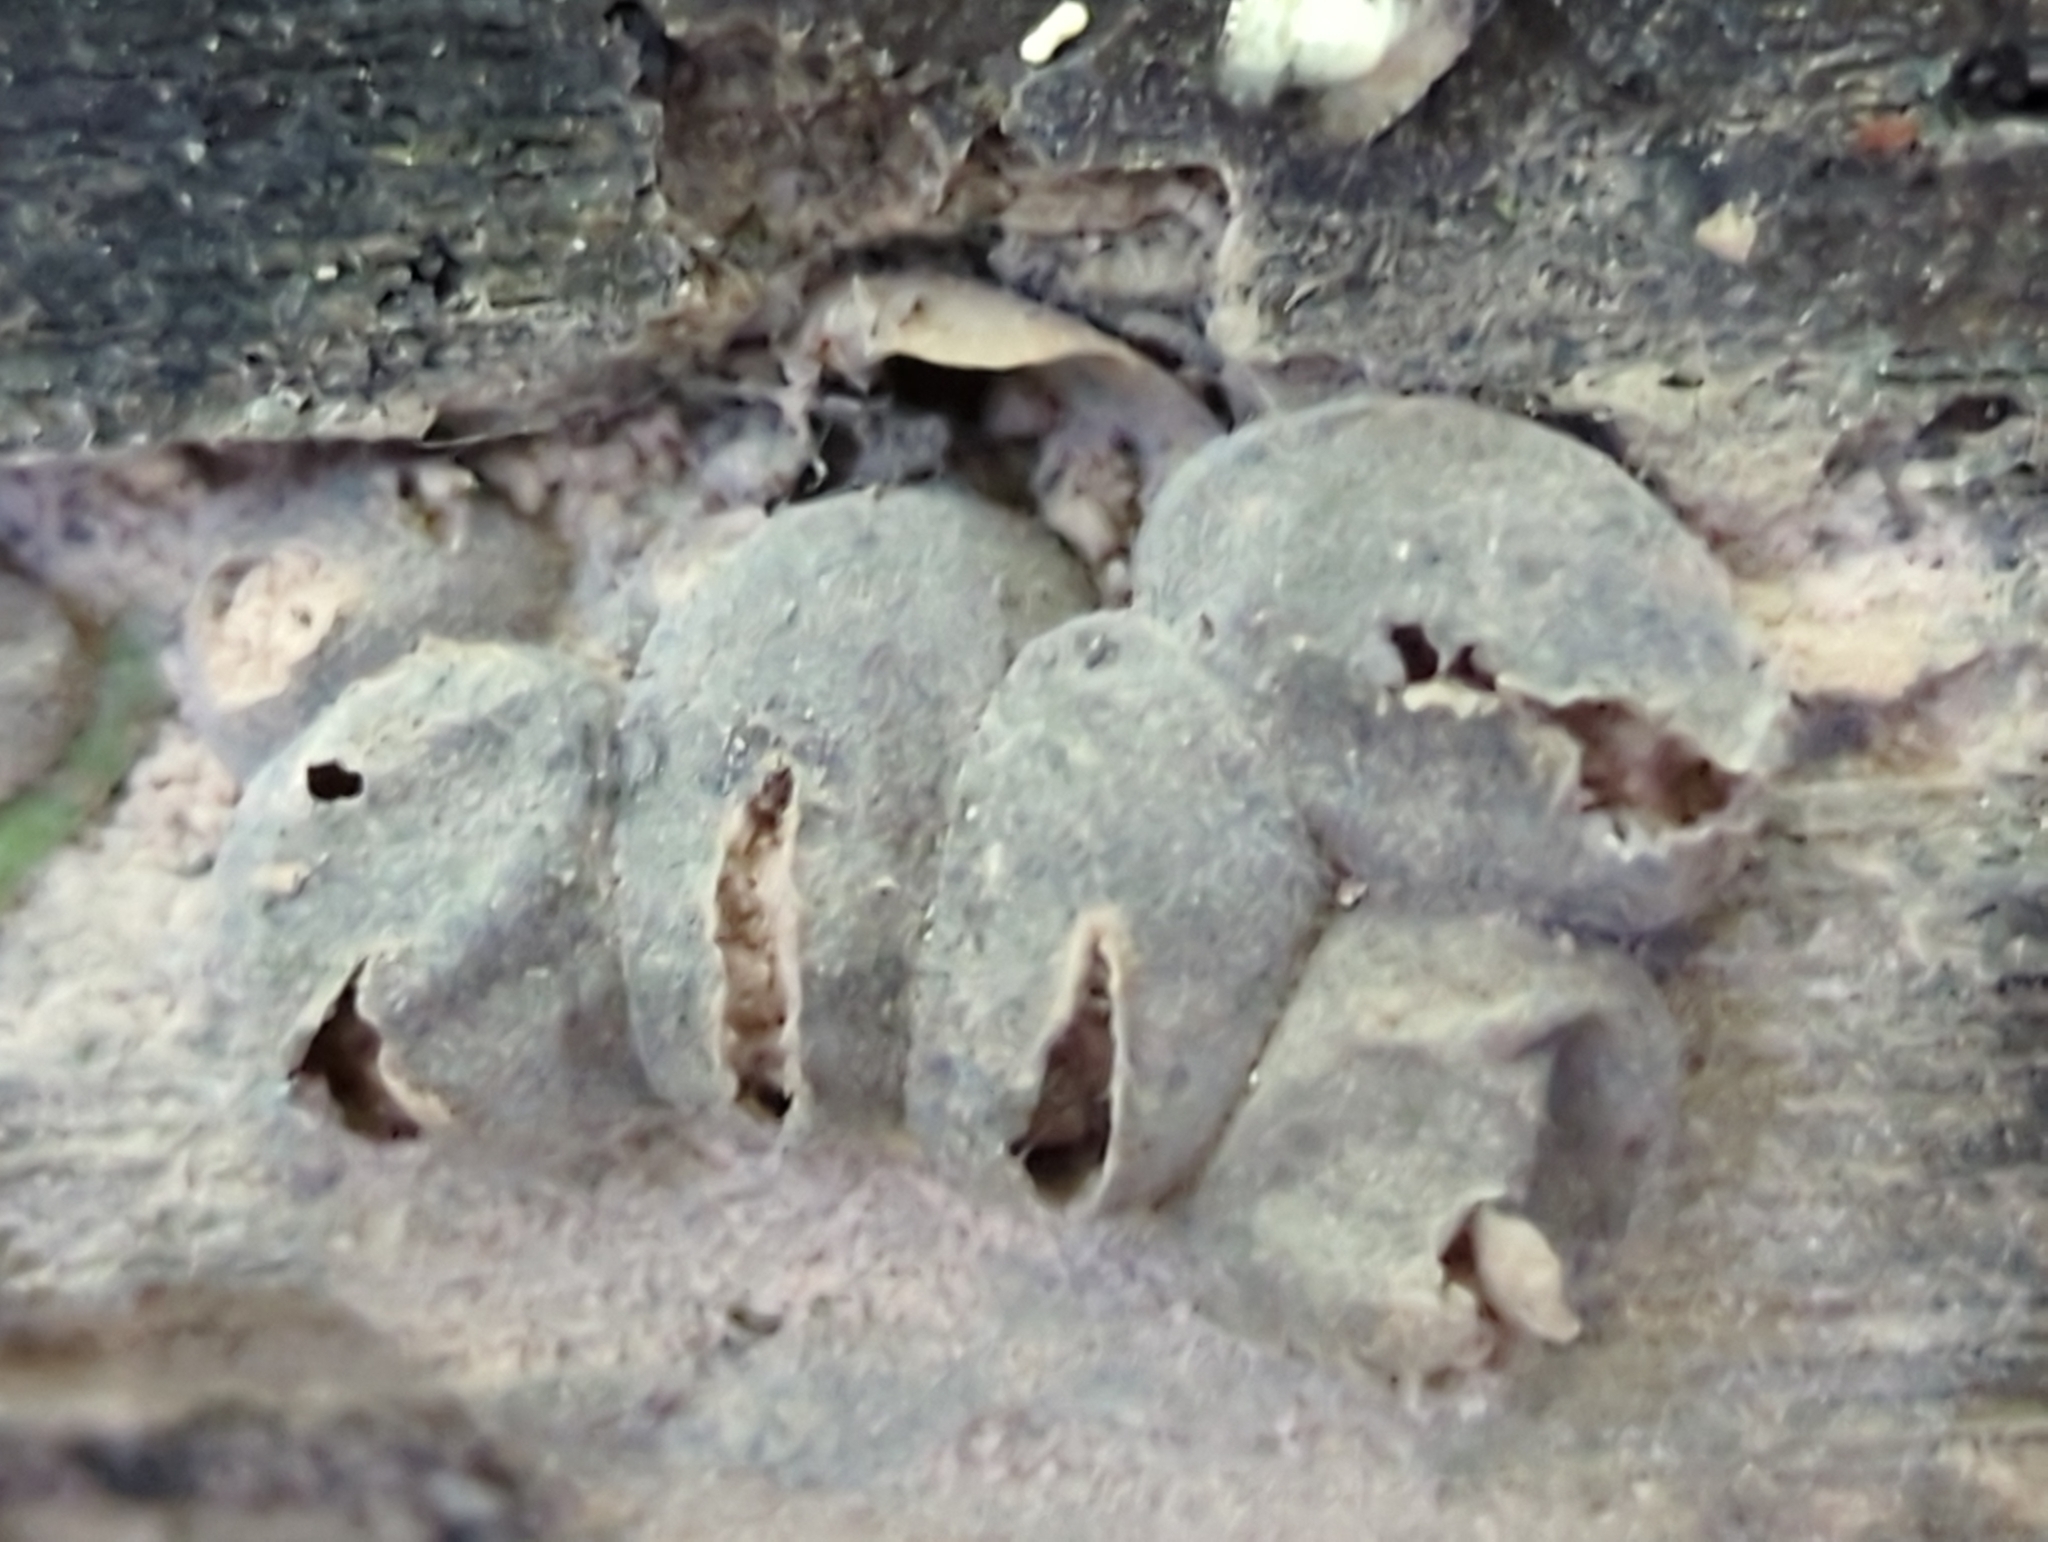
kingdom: Protozoa
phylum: Mycetozoa
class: Myxomycetes
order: Cribrariales
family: Tubiferaceae
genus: Lycogala
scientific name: Lycogala epidendrum
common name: Wolf's milk
